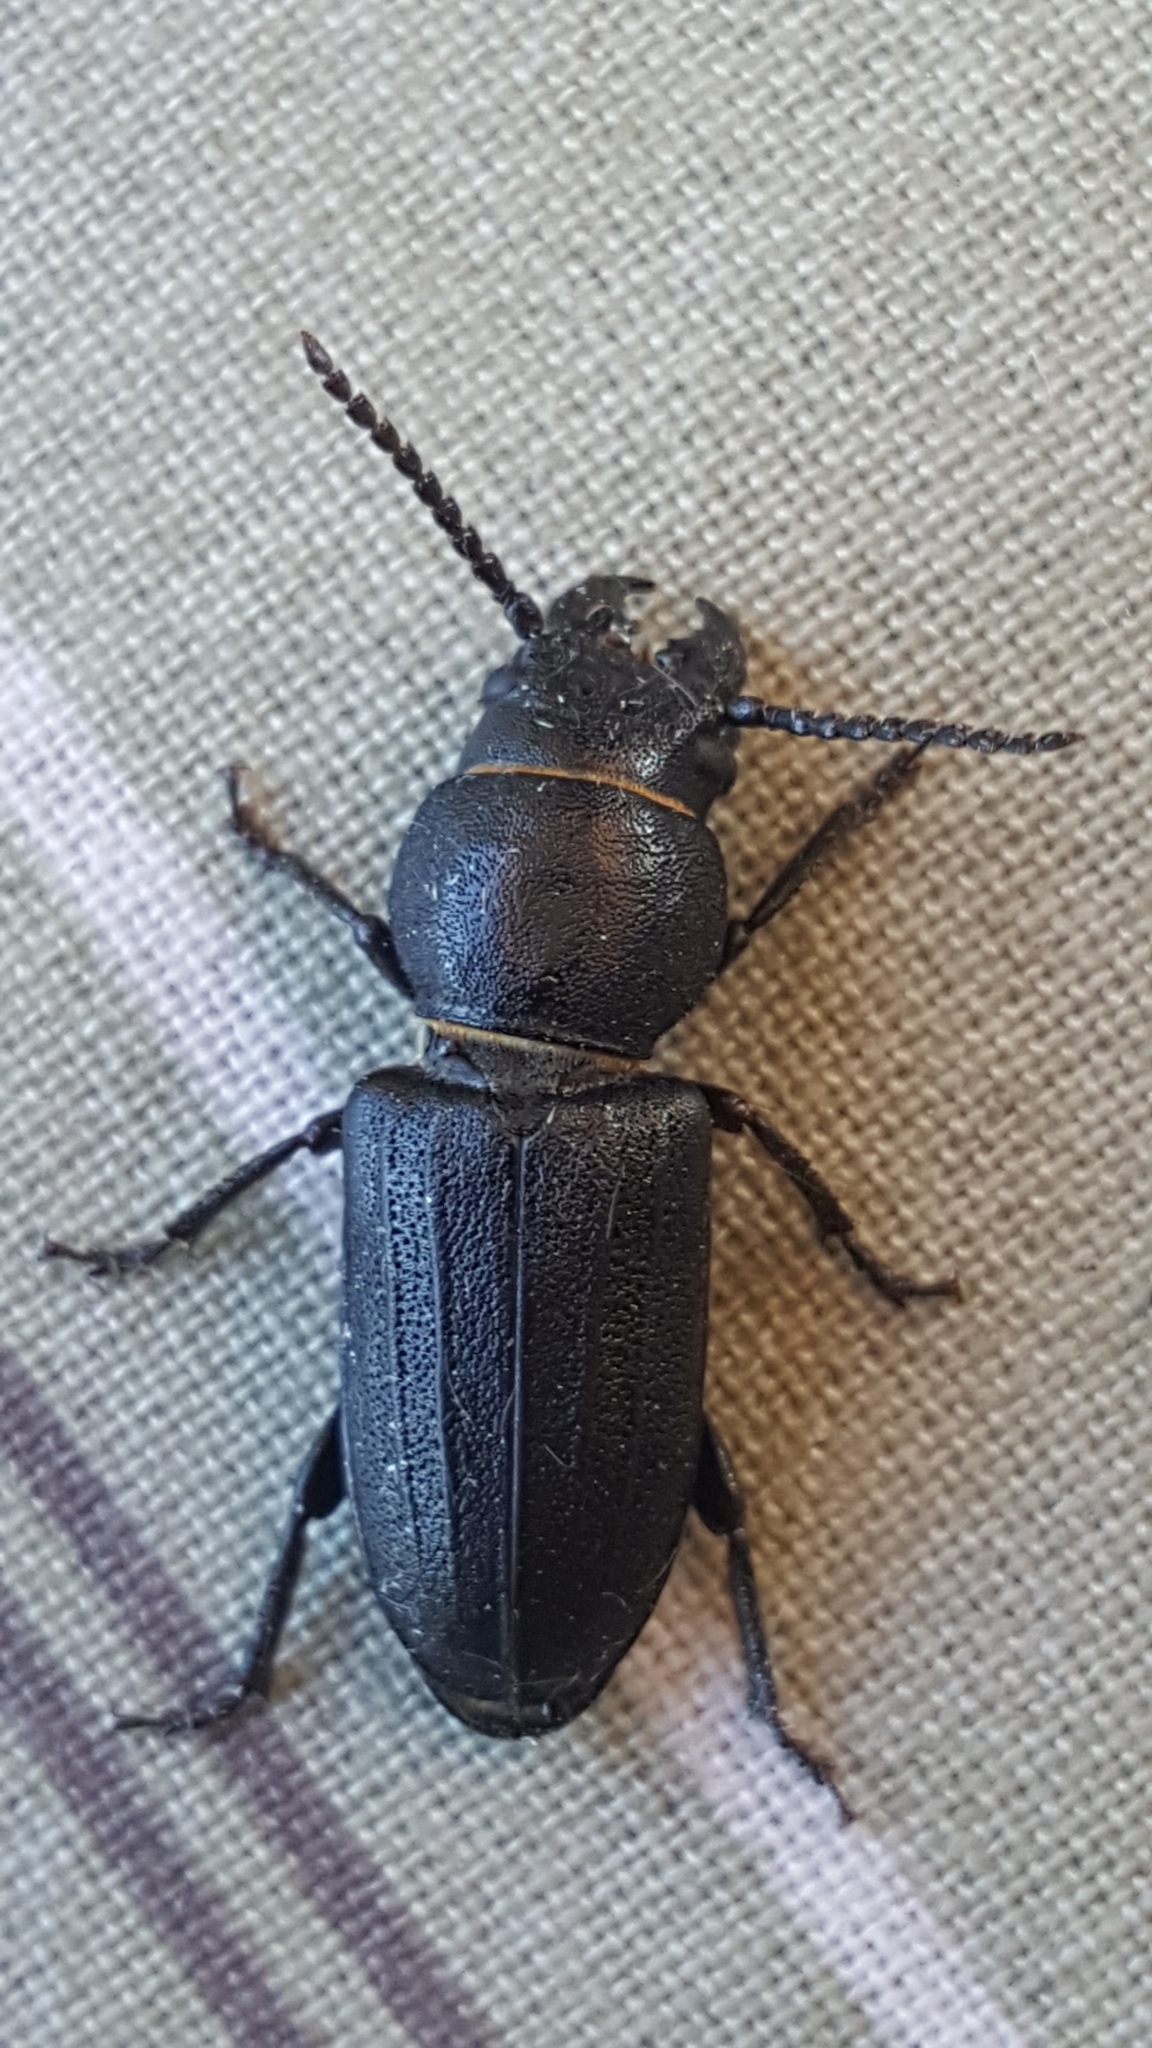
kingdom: Animalia
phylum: Arthropoda
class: Insecta
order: Coleoptera
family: Cerambycidae
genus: Spondylis
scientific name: Spondylis buprestoides
